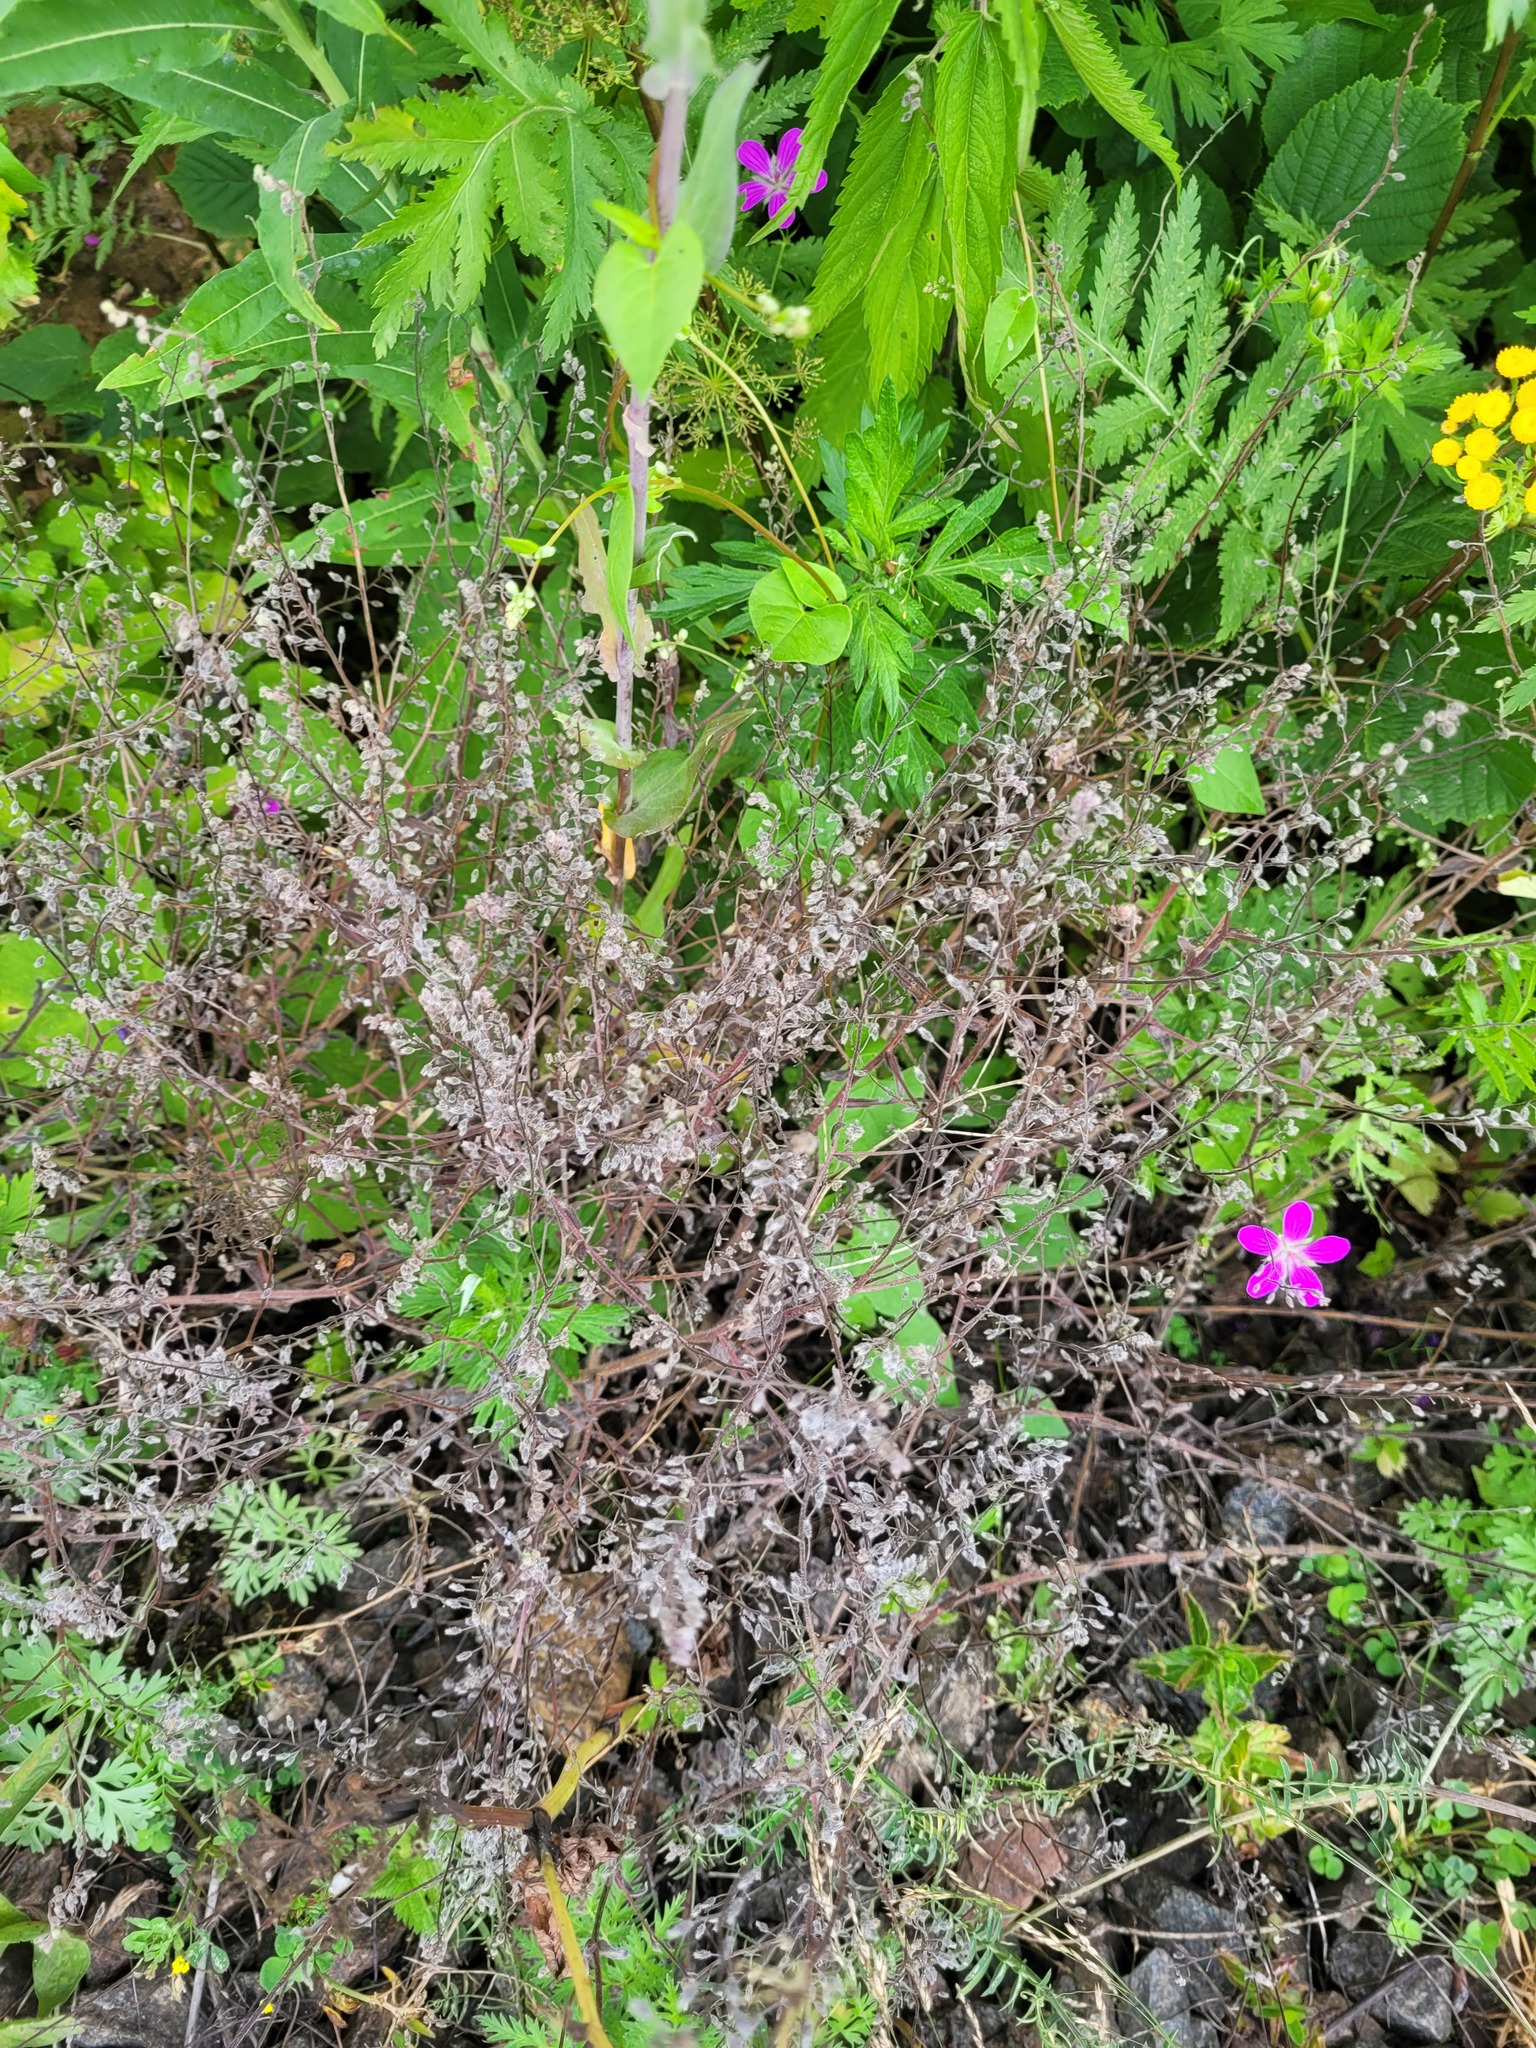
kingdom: Plantae
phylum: Tracheophyta
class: Magnoliopsida
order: Boraginales
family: Boraginaceae
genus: Myosotis
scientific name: Myosotis arvensis
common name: Field forget-me-not
